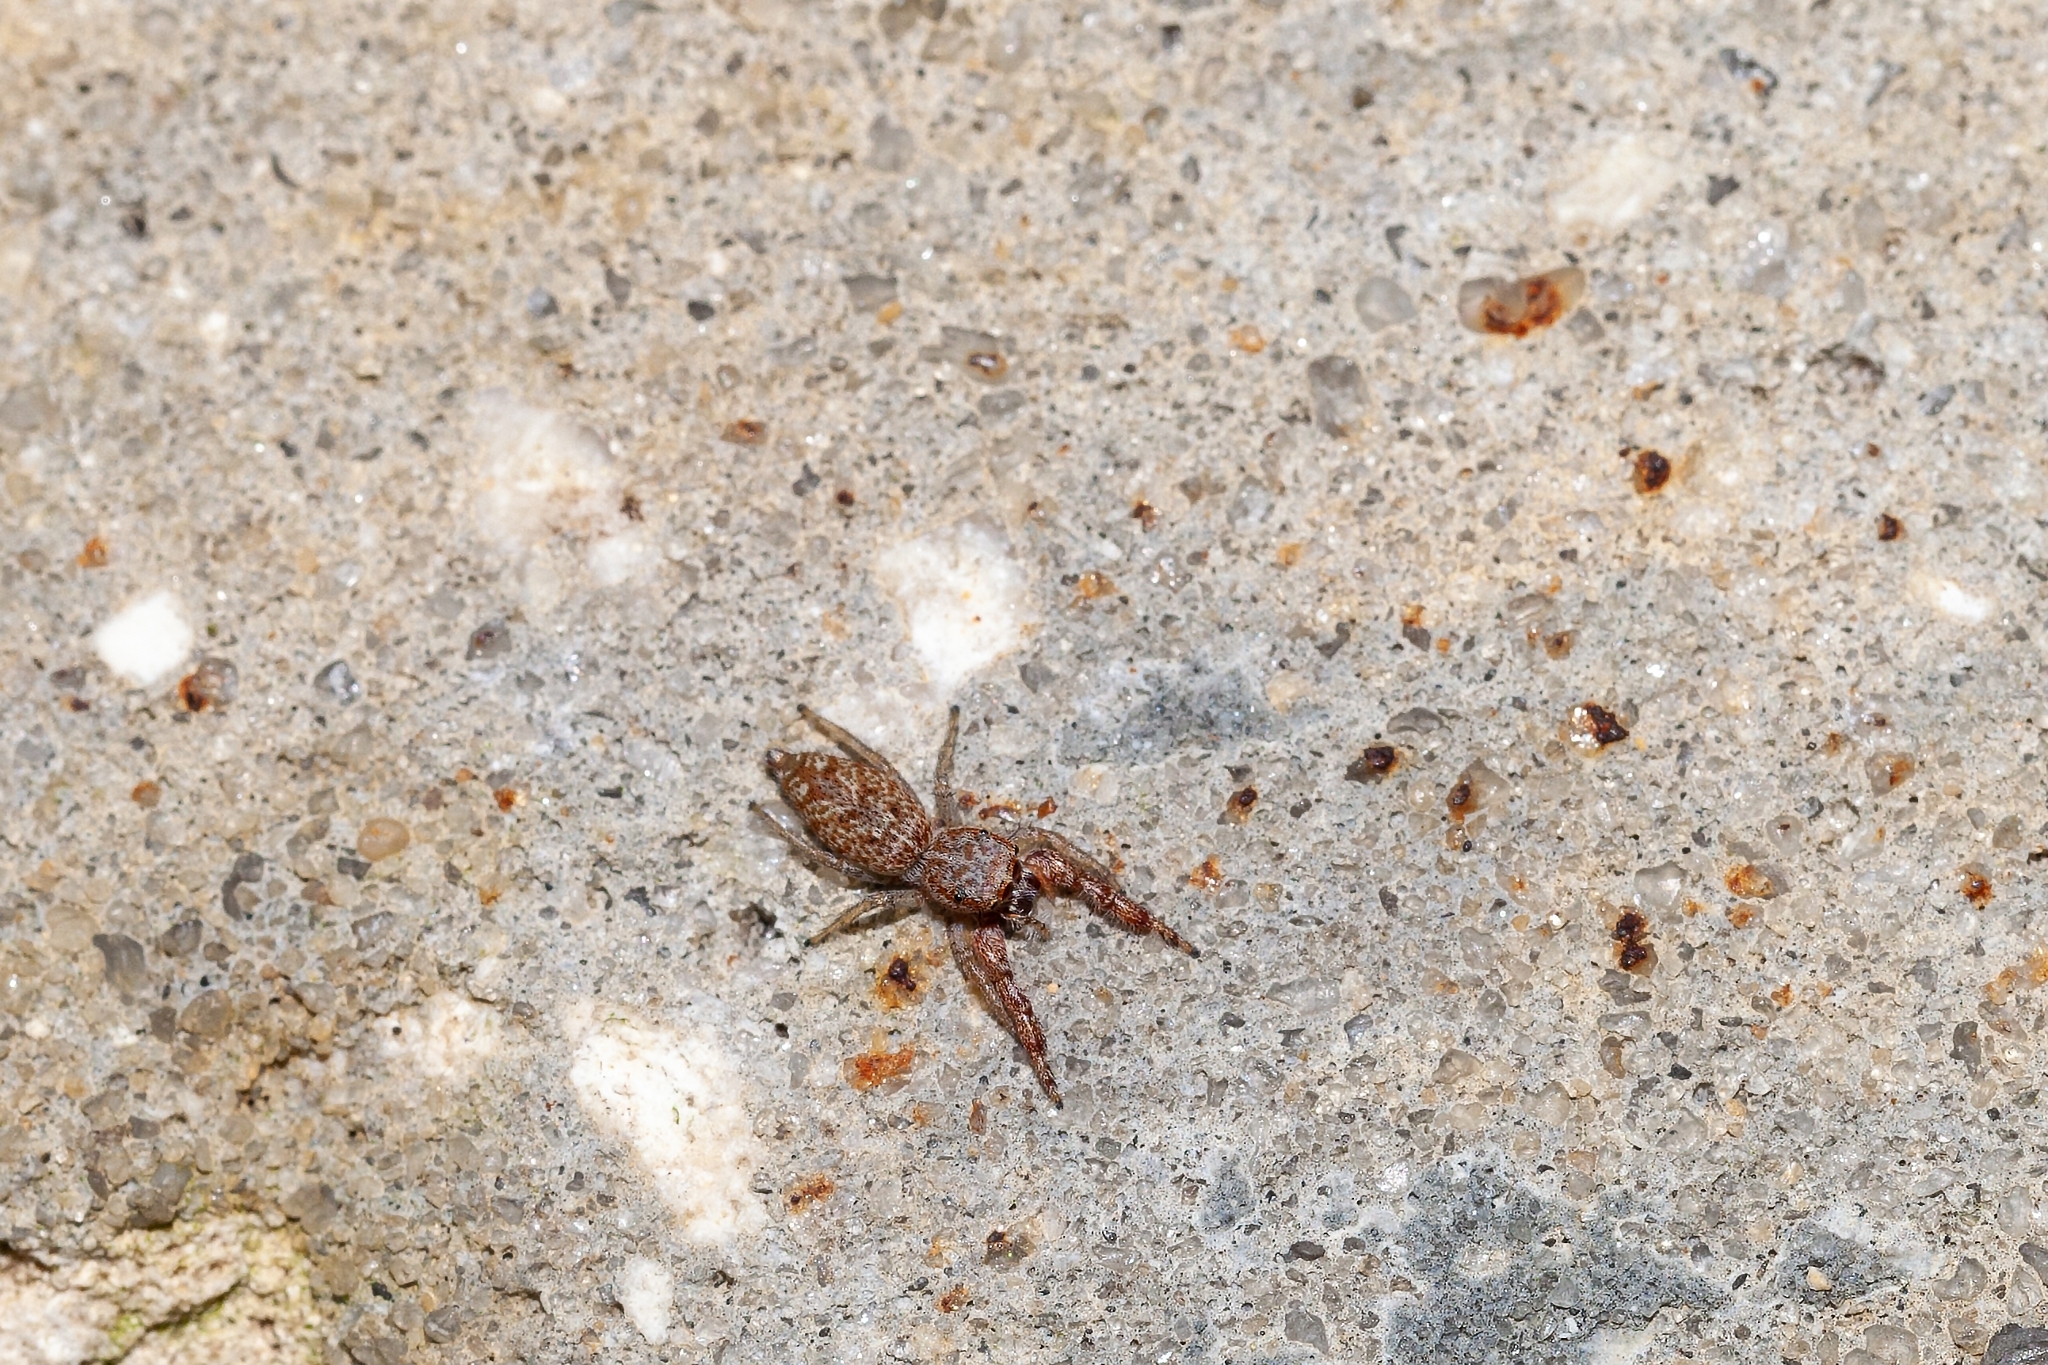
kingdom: Animalia
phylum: Arthropoda
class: Arachnida
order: Araneae
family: Salticidae
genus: Hentzia
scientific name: Hentzia palmarum
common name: Common hentz jumping spider
